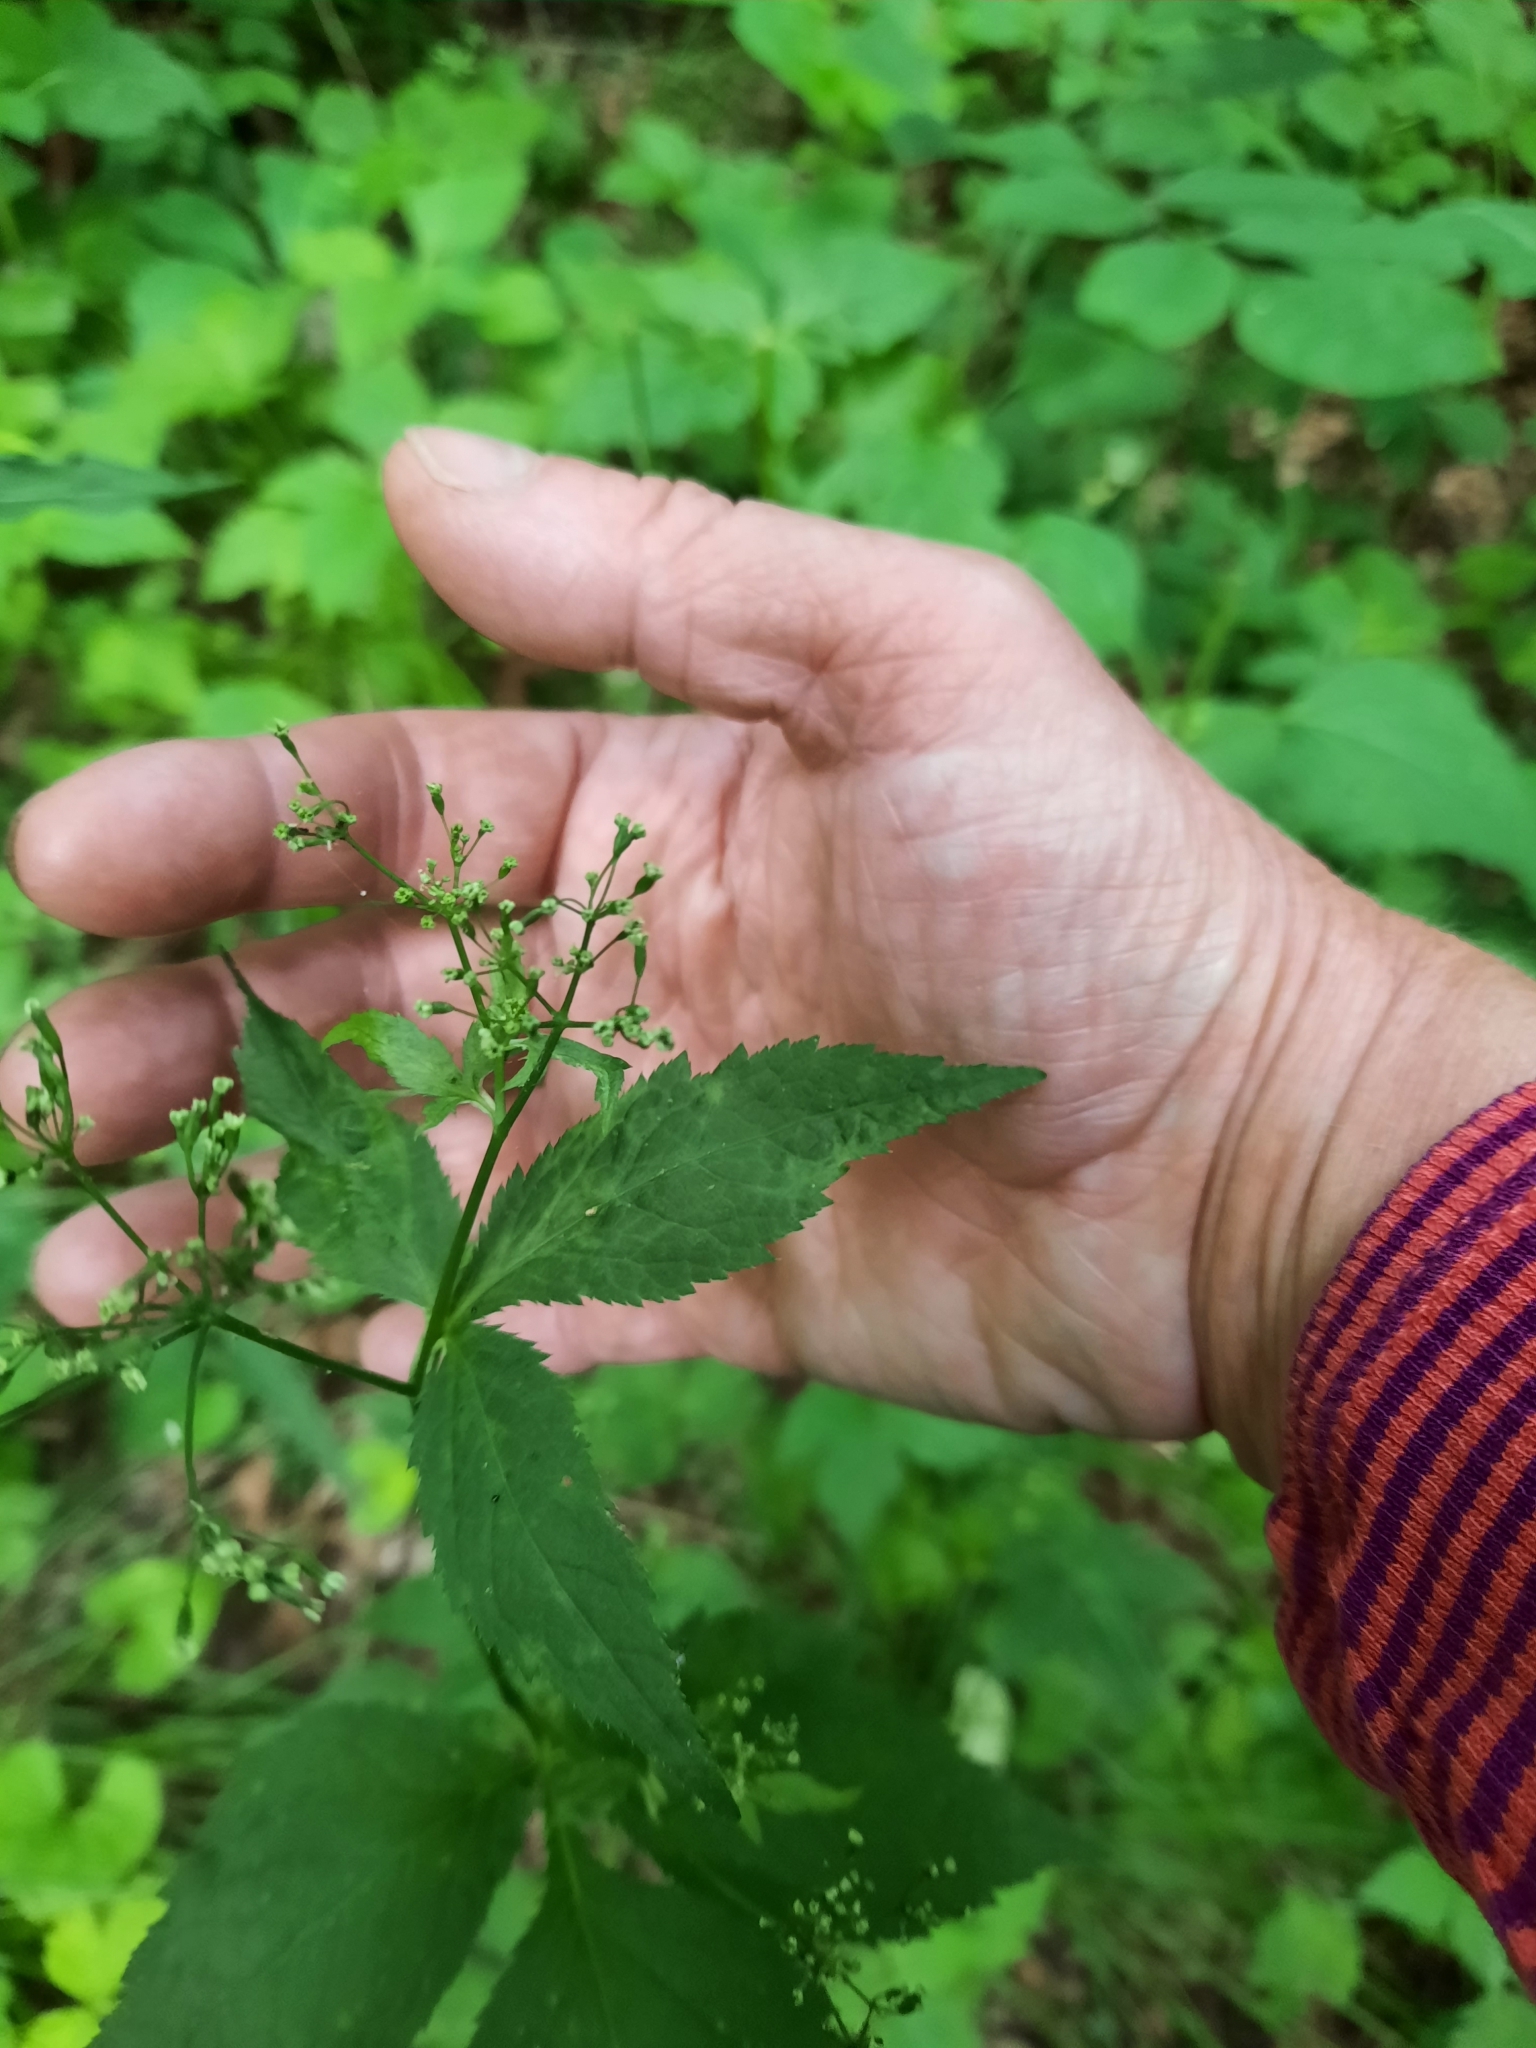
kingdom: Plantae
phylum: Tracheophyta
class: Magnoliopsida
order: Apiales
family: Apiaceae
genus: Cryptotaenia
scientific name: Cryptotaenia canadensis
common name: Honewort
